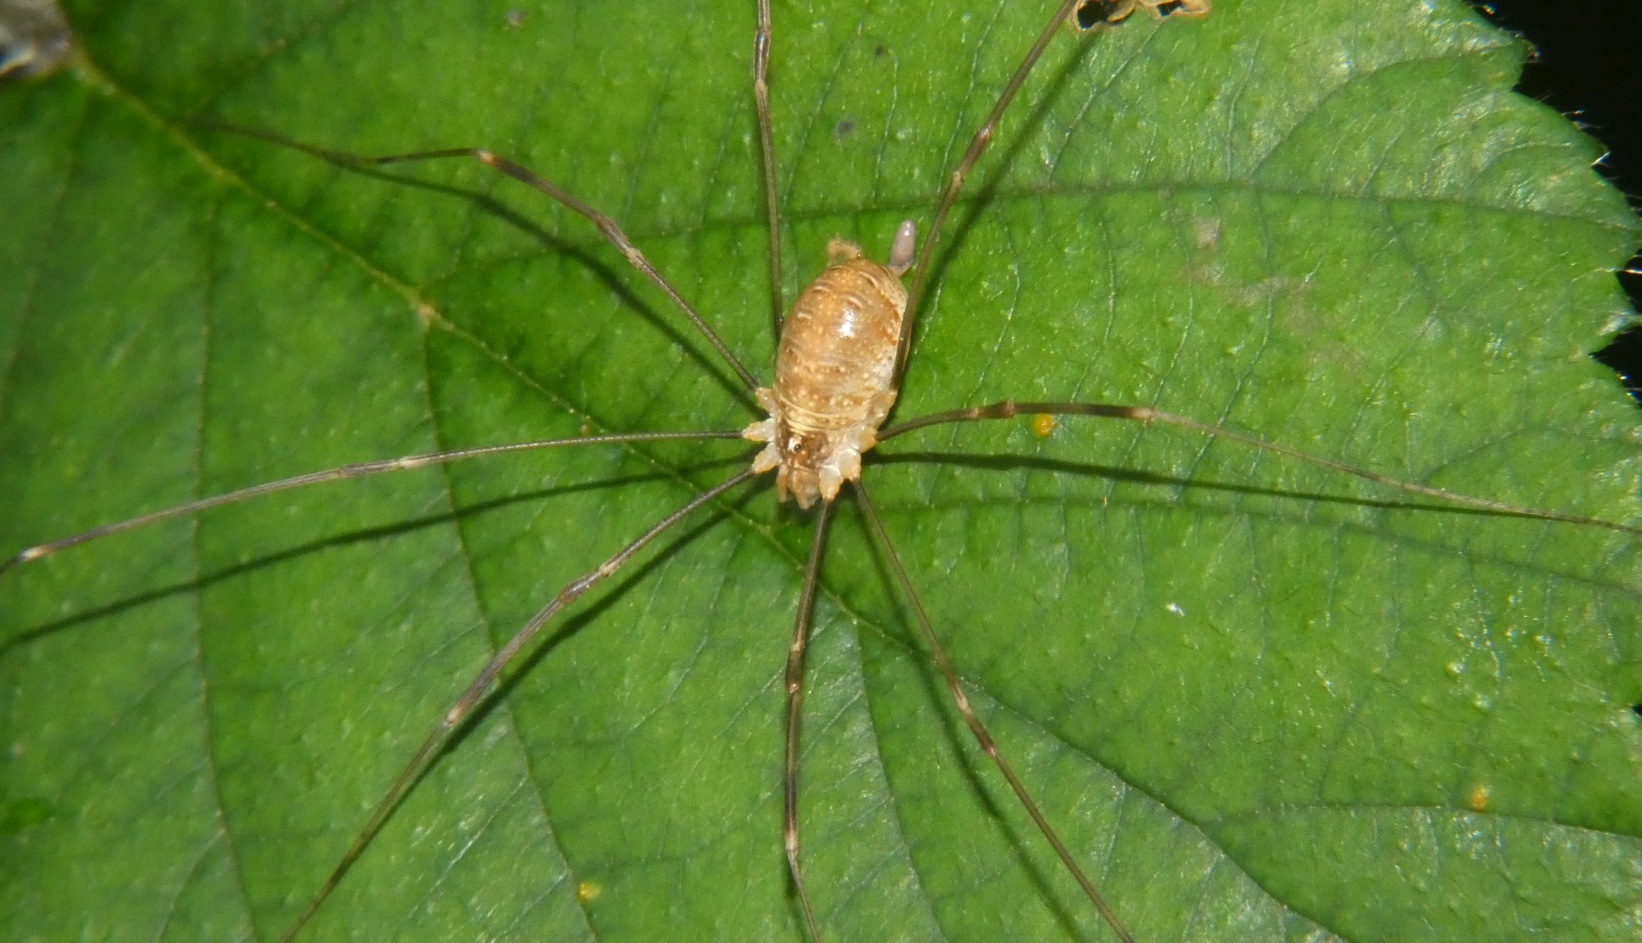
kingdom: Animalia
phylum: Arthropoda
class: Arachnida
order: Opiliones
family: Phalangiidae
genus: Opilio
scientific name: Opilio canestrinii
